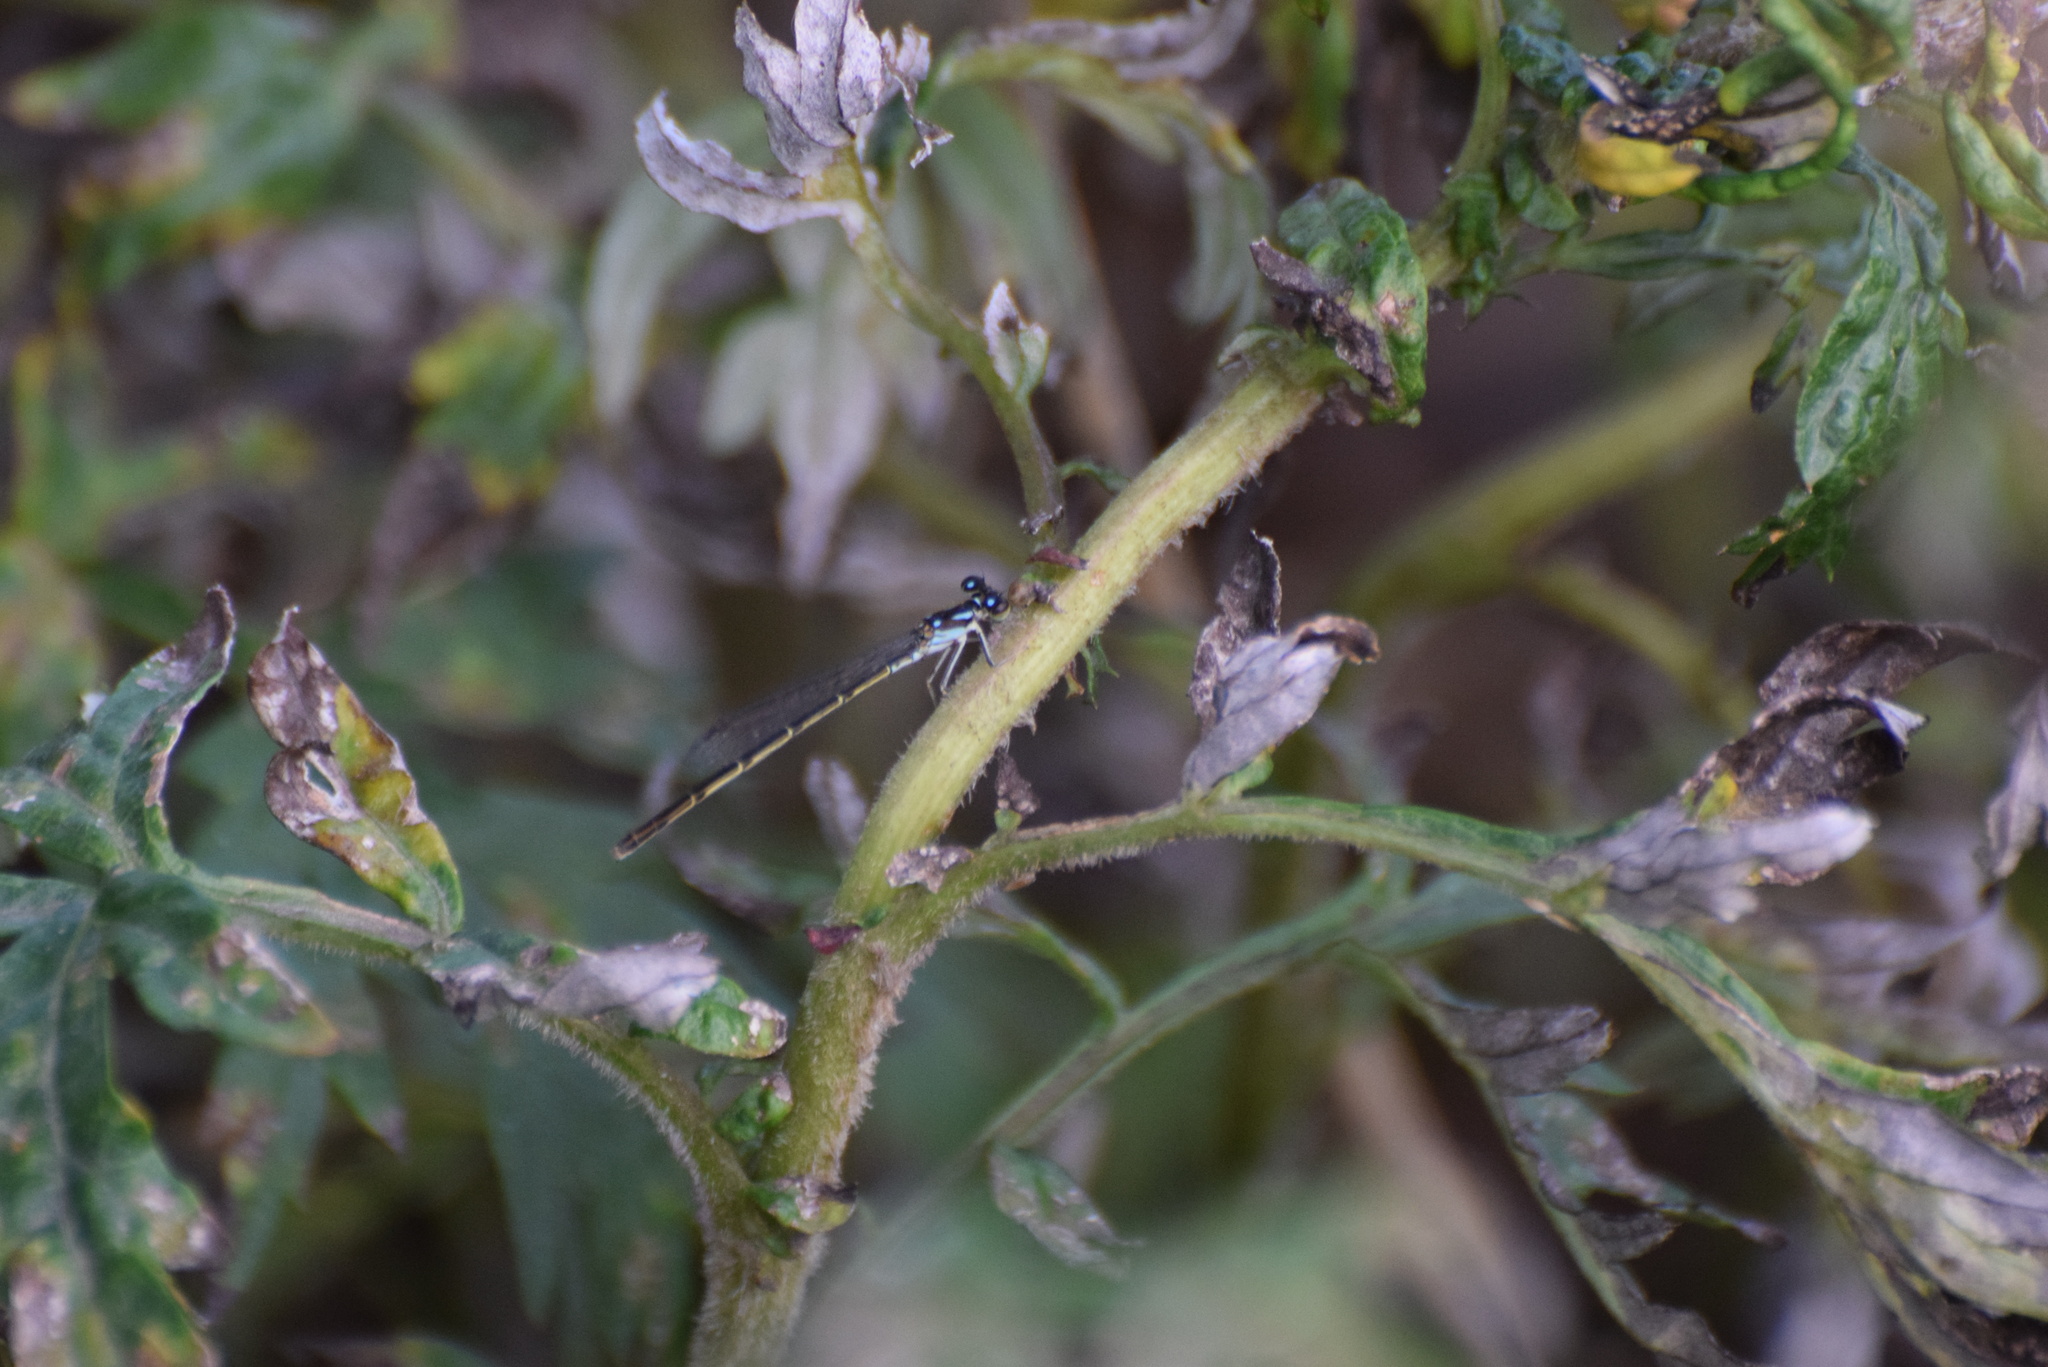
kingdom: Animalia
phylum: Arthropoda
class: Insecta
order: Odonata
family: Coenagrionidae
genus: Ischnura
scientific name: Ischnura posita
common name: Fragile forktail
